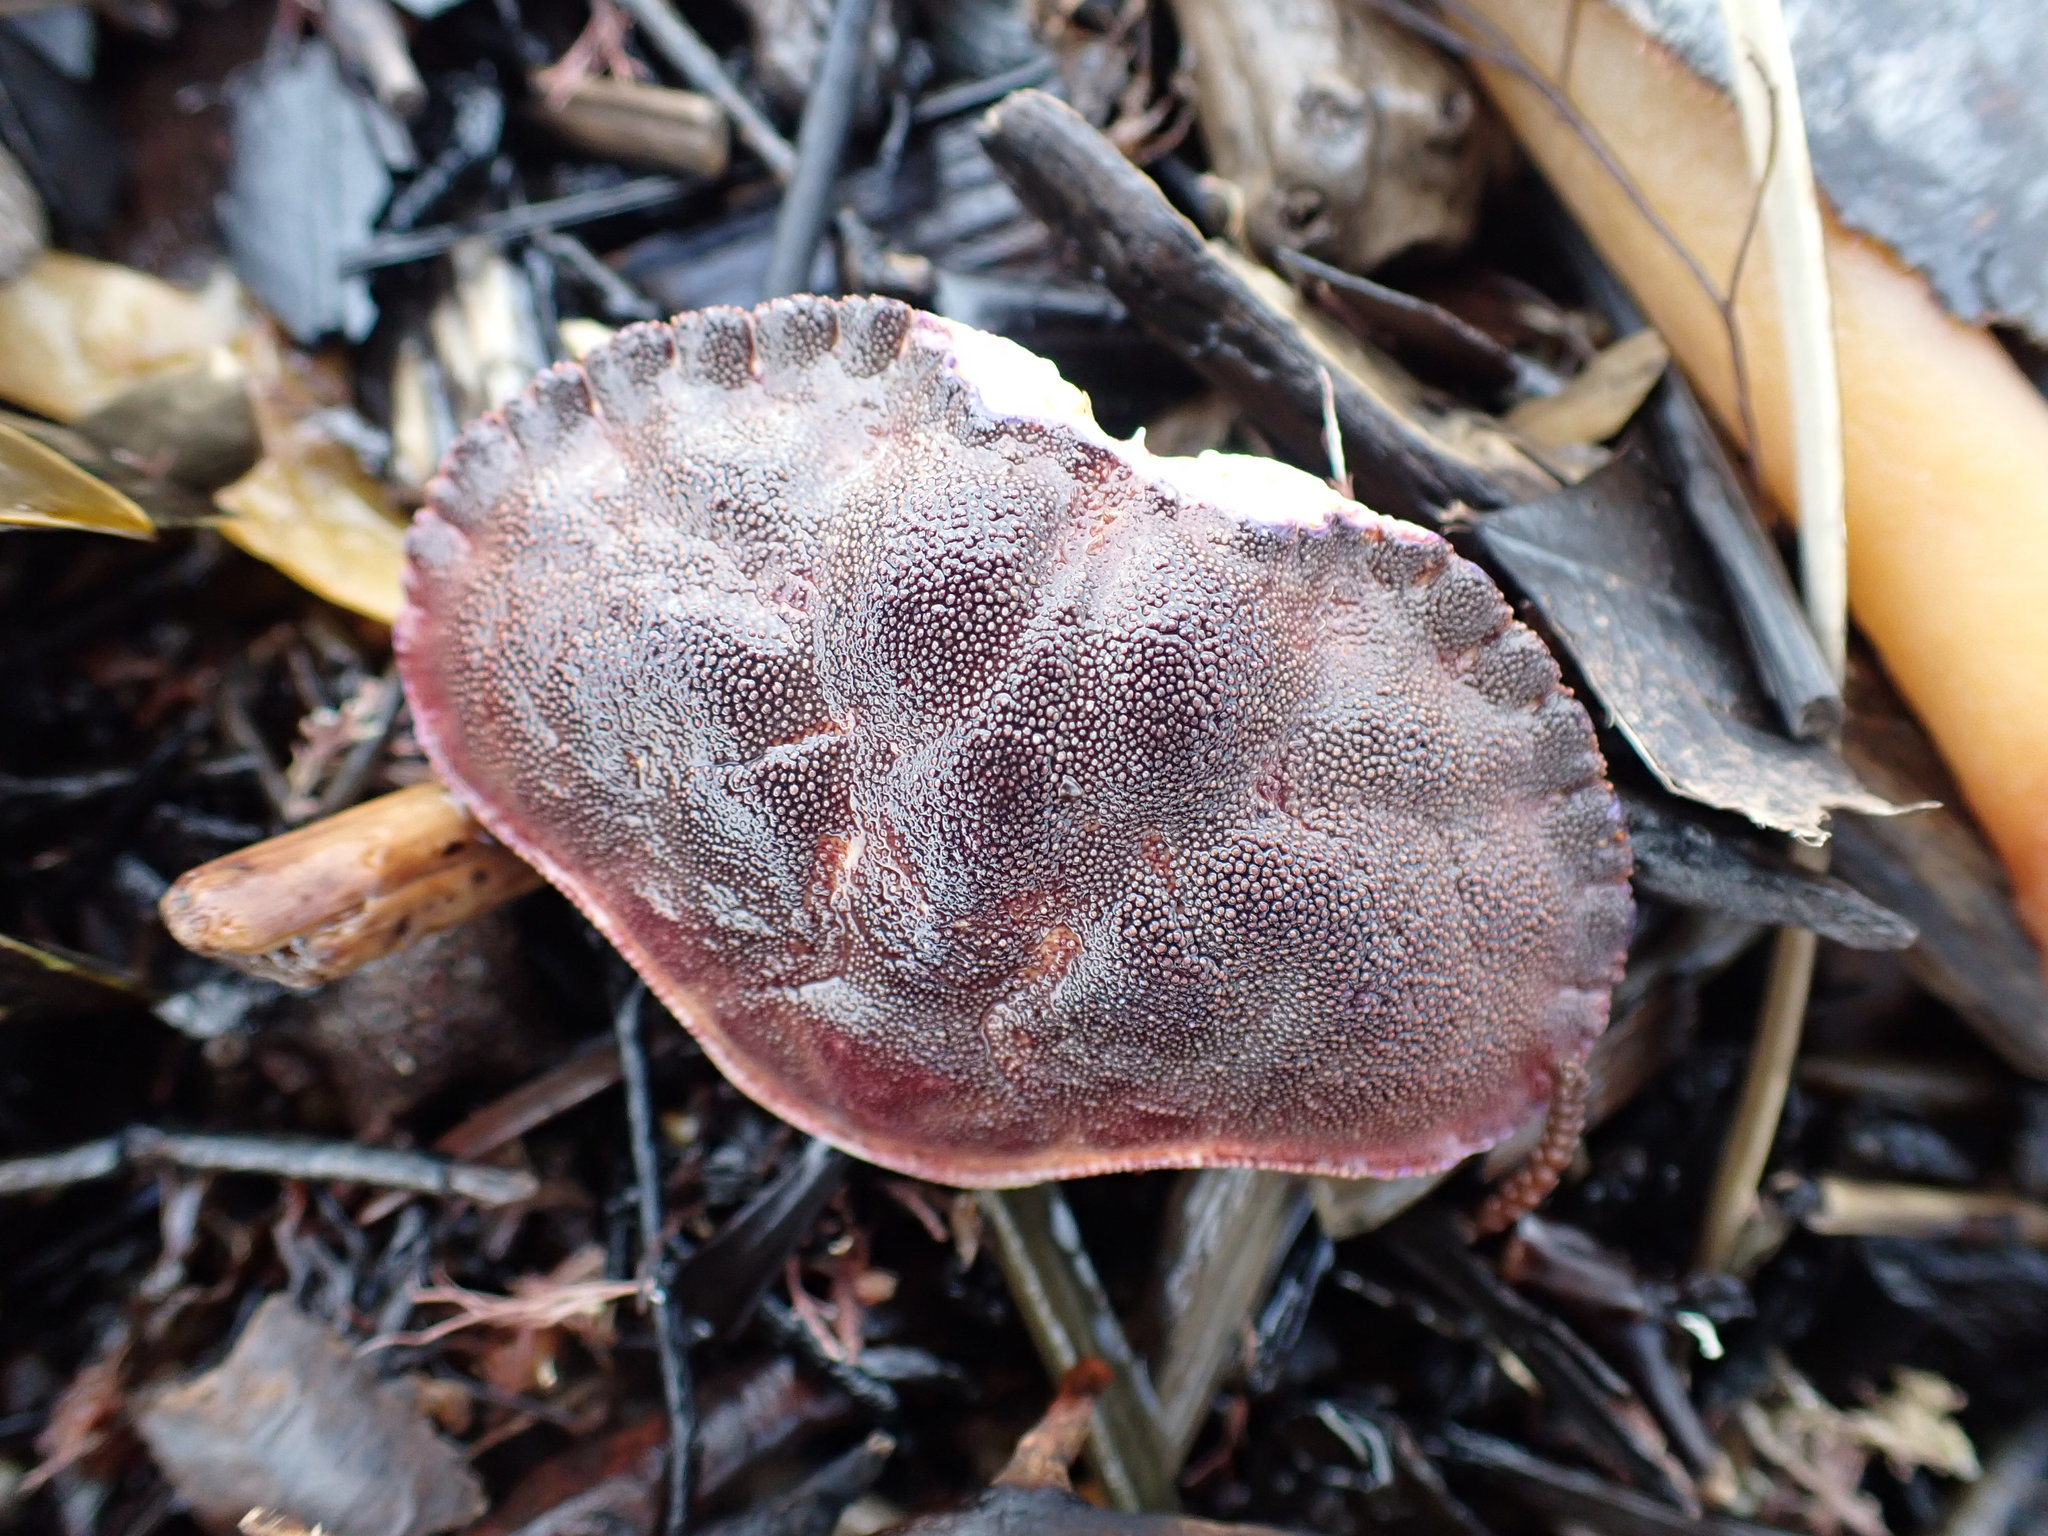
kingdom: Animalia
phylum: Arthropoda
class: Malacostraca
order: Decapoda
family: Cancridae
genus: Metacarcinus
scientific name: Metacarcinus novaezelandiae
